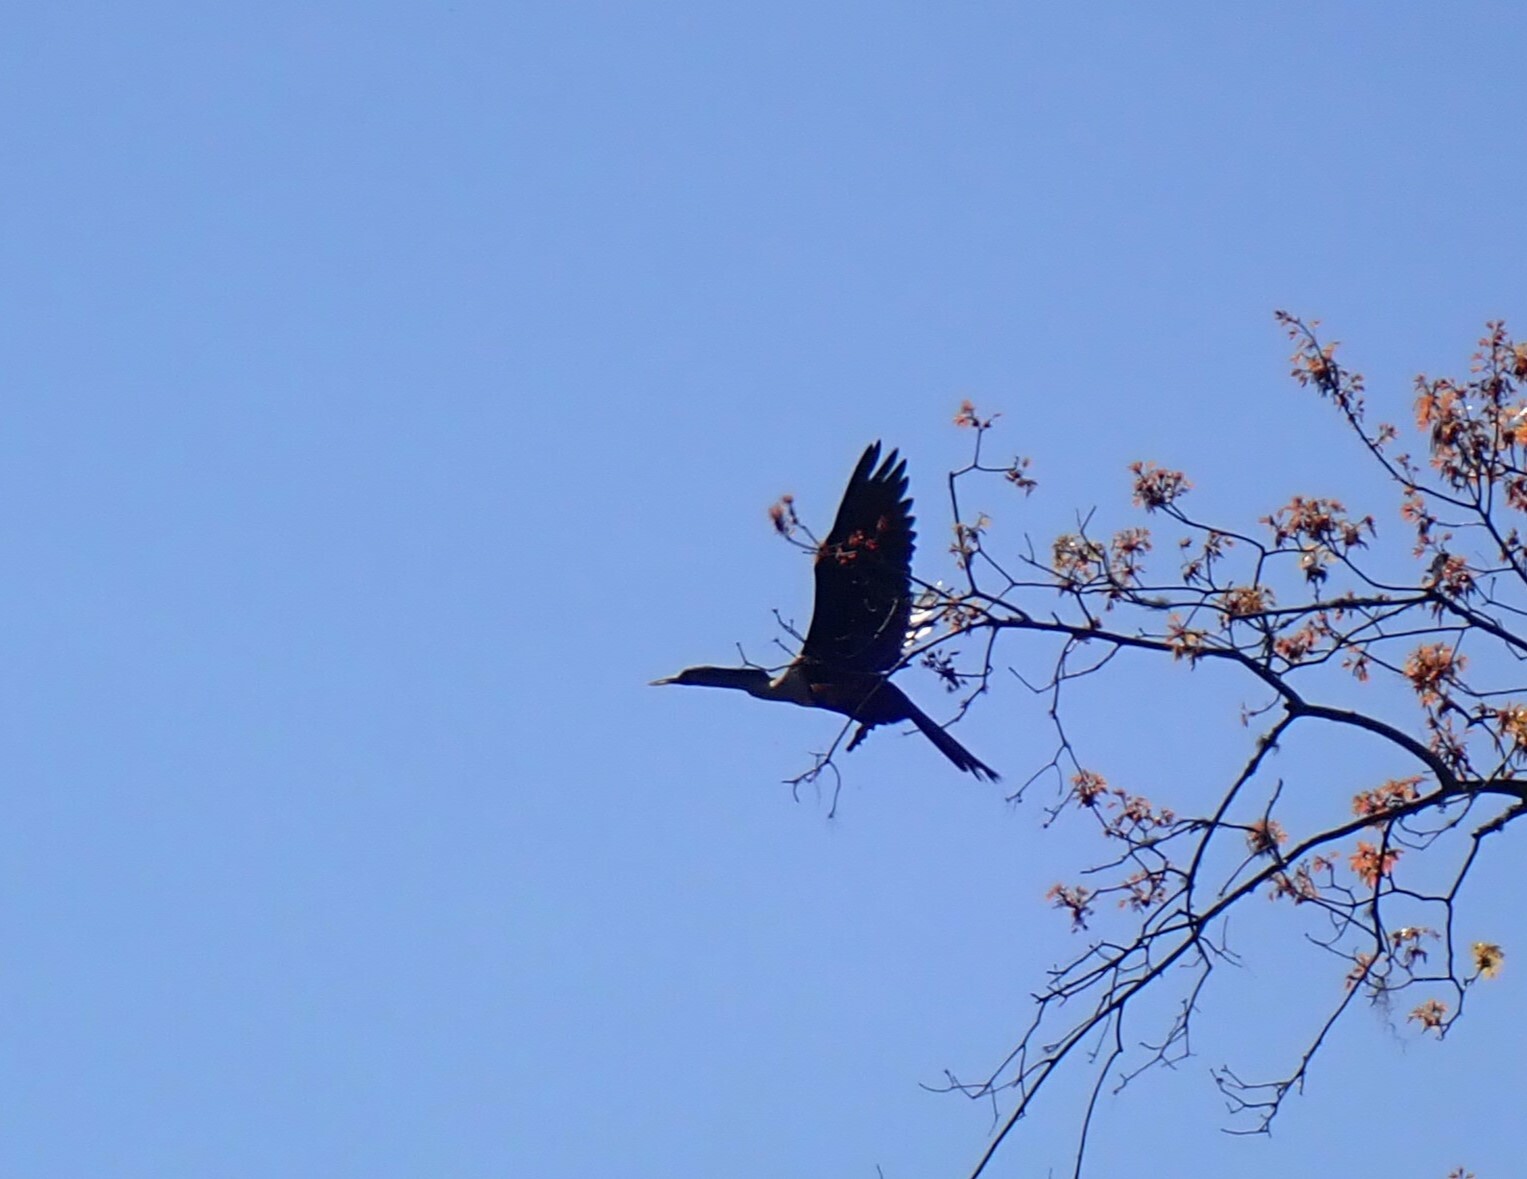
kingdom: Animalia
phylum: Chordata
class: Aves
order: Suliformes
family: Anhingidae
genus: Anhinga
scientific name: Anhinga anhinga
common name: Anhinga
